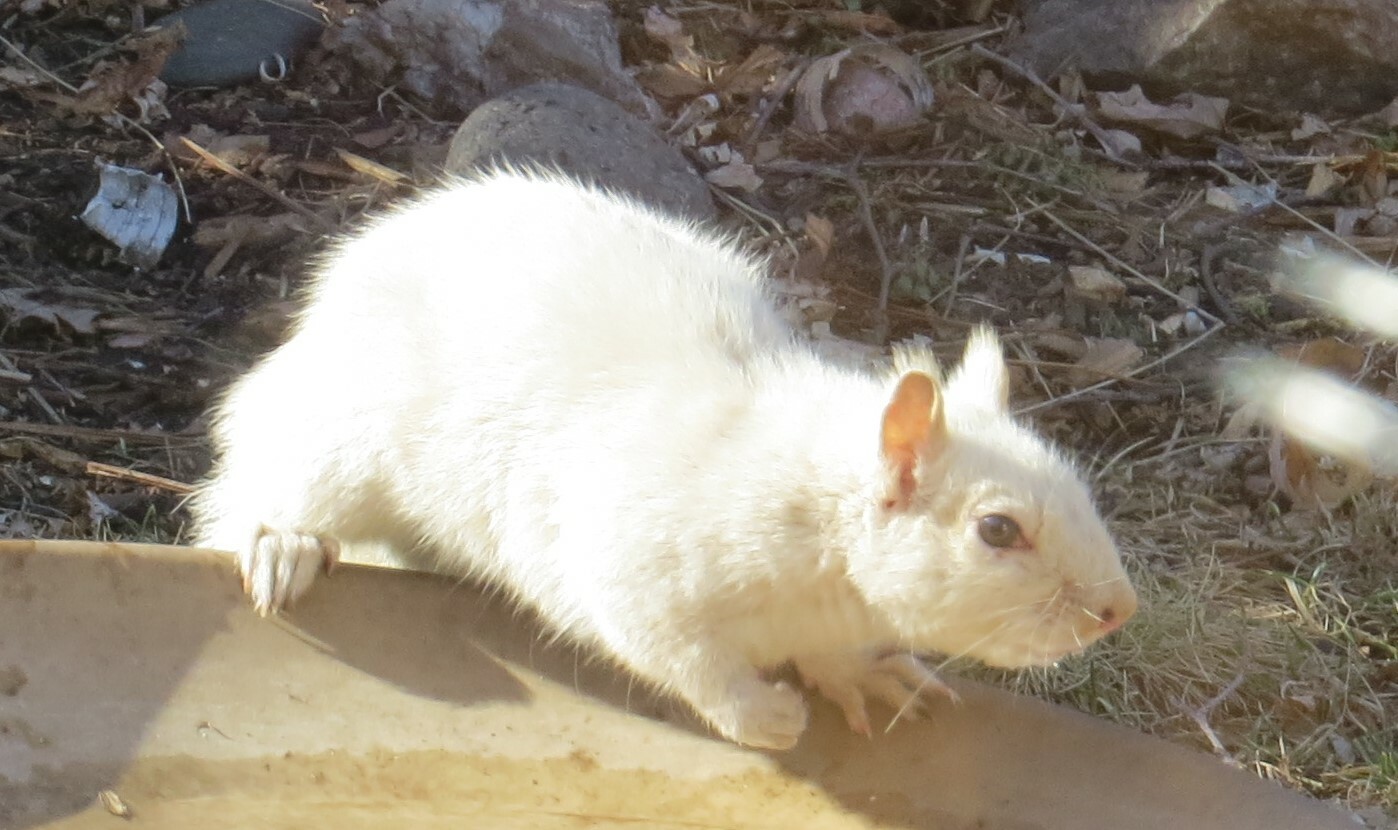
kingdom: Animalia
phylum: Chordata
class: Mammalia
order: Rodentia
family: Sciuridae
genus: Sciurus
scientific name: Sciurus carolinensis
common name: Eastern gray squirrel
